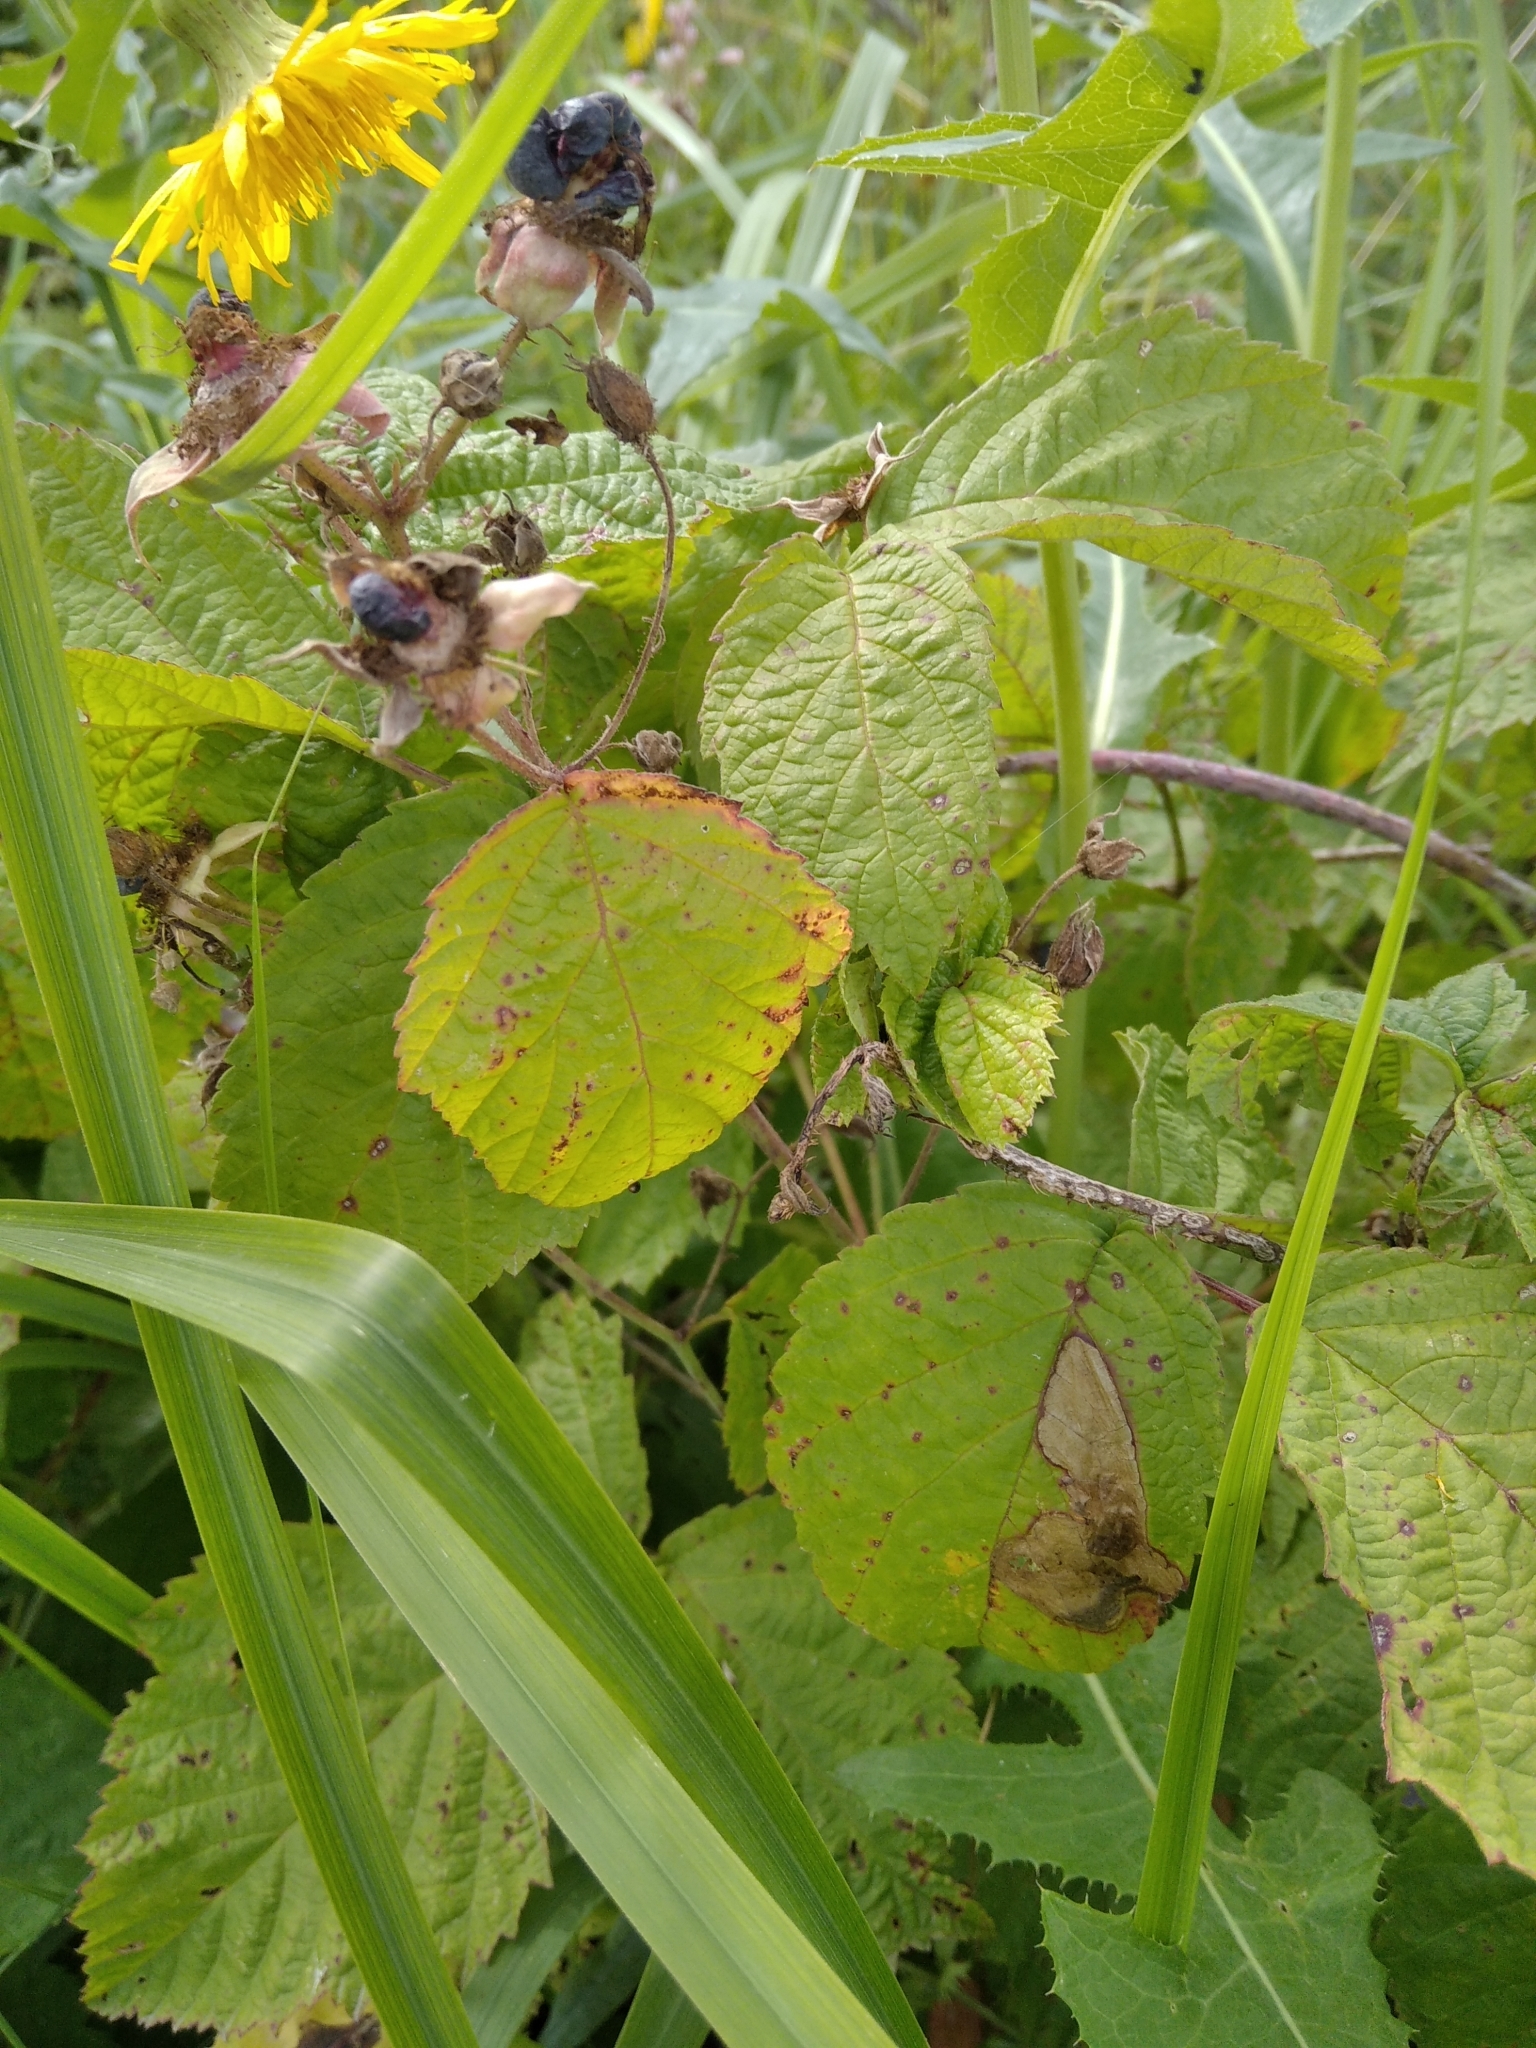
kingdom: Plantae
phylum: Tracheophyta
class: Magnoliopsida
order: Rosales
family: Rosaceae
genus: Rubus
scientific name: Rubus caesius
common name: Dewberry
